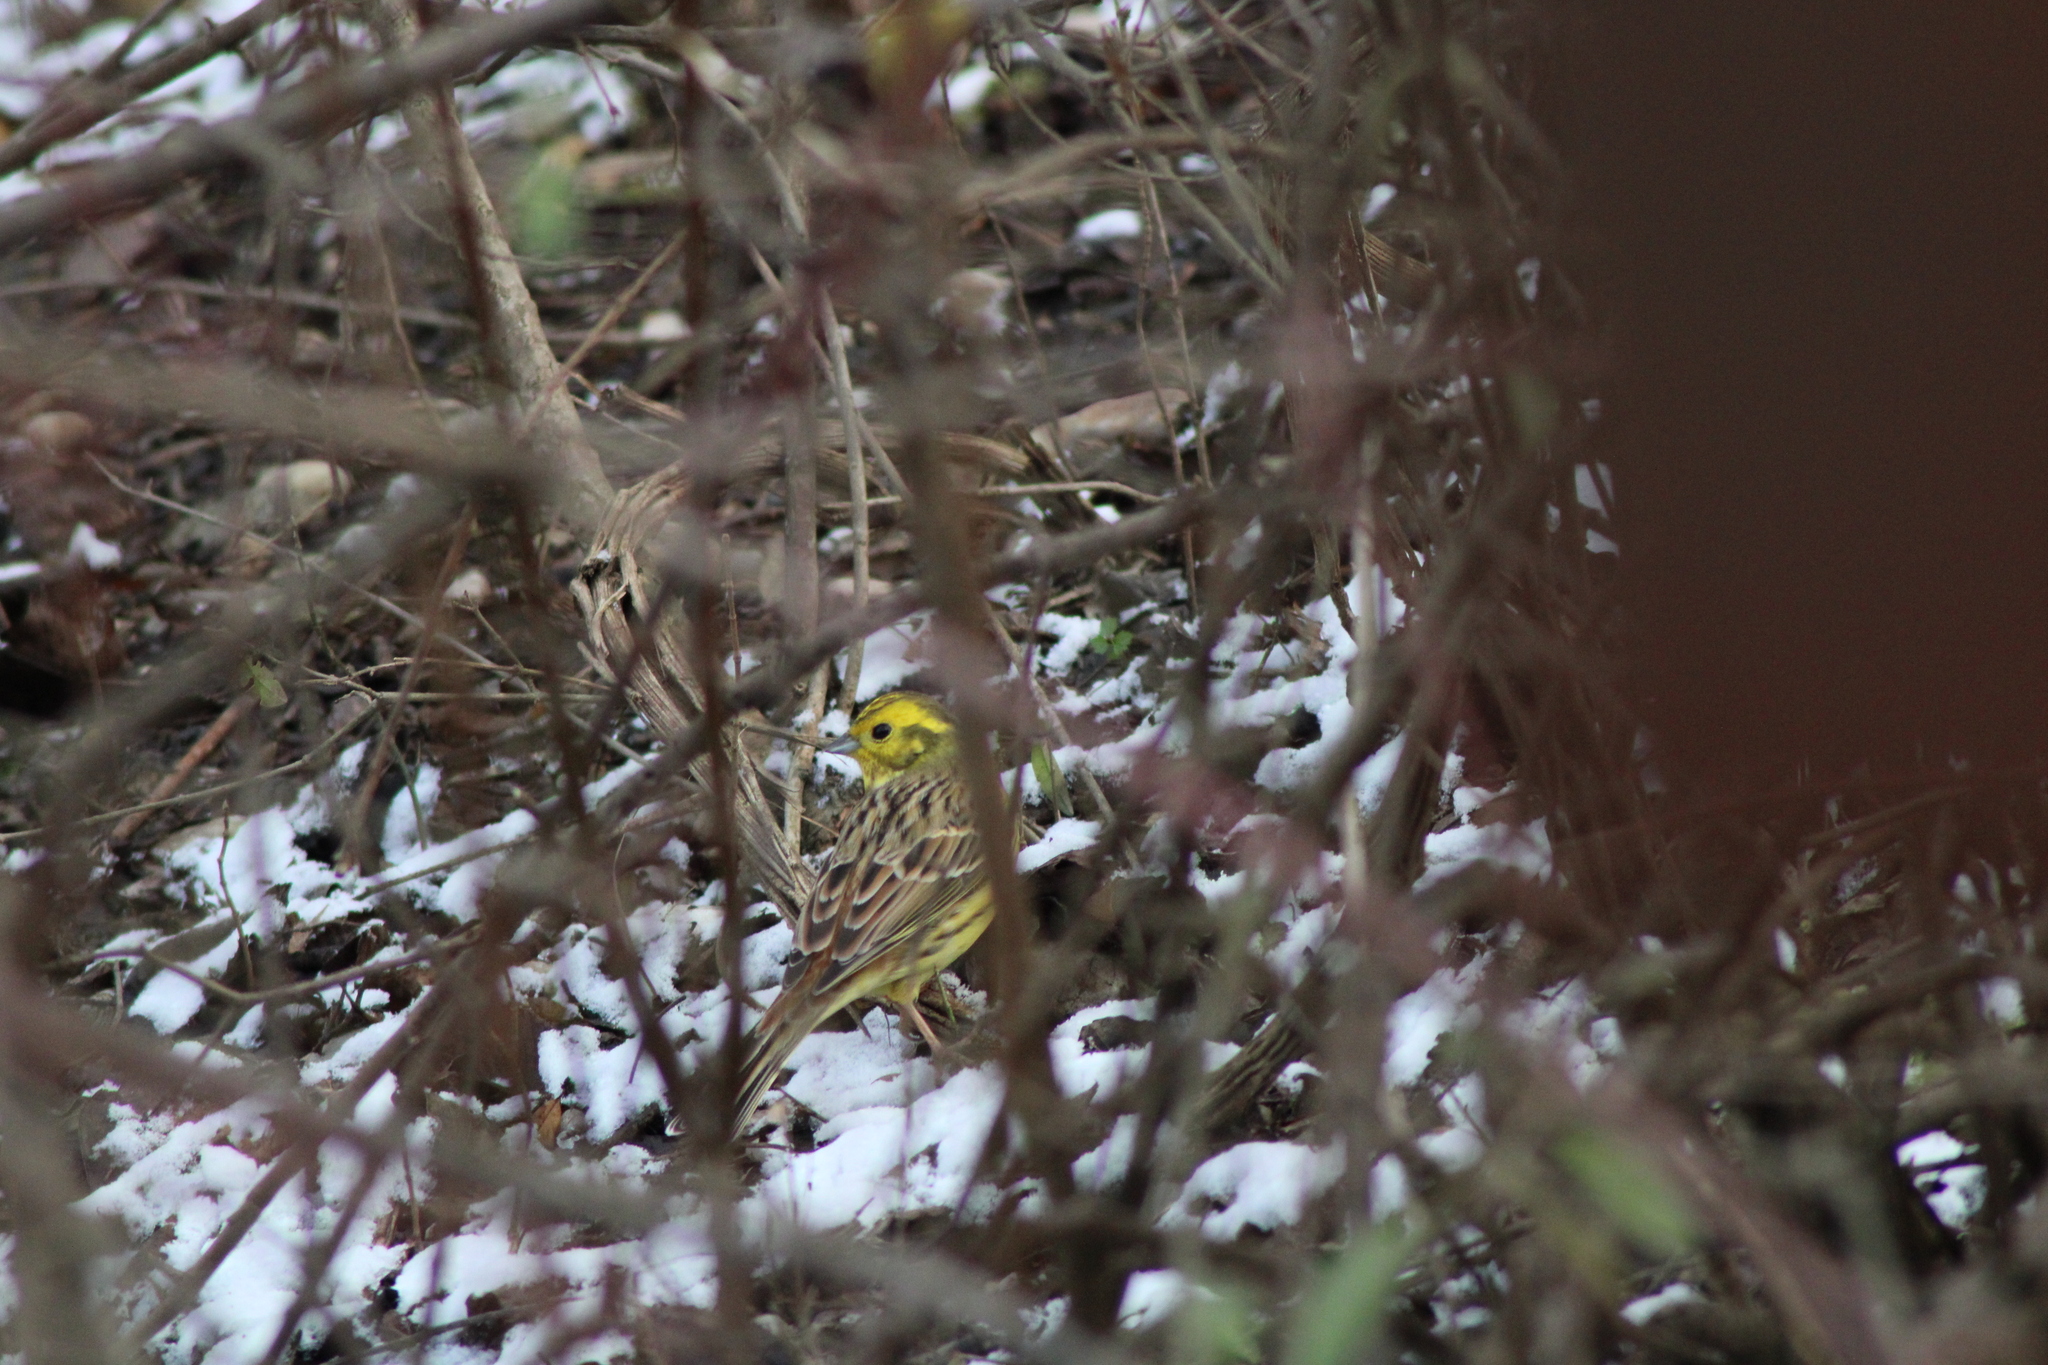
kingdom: Animalia
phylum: Chordata
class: Aves
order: Passeriformes
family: Emberizidae
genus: Emberiza
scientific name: Emberiza citrinella
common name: Yellowhammer
